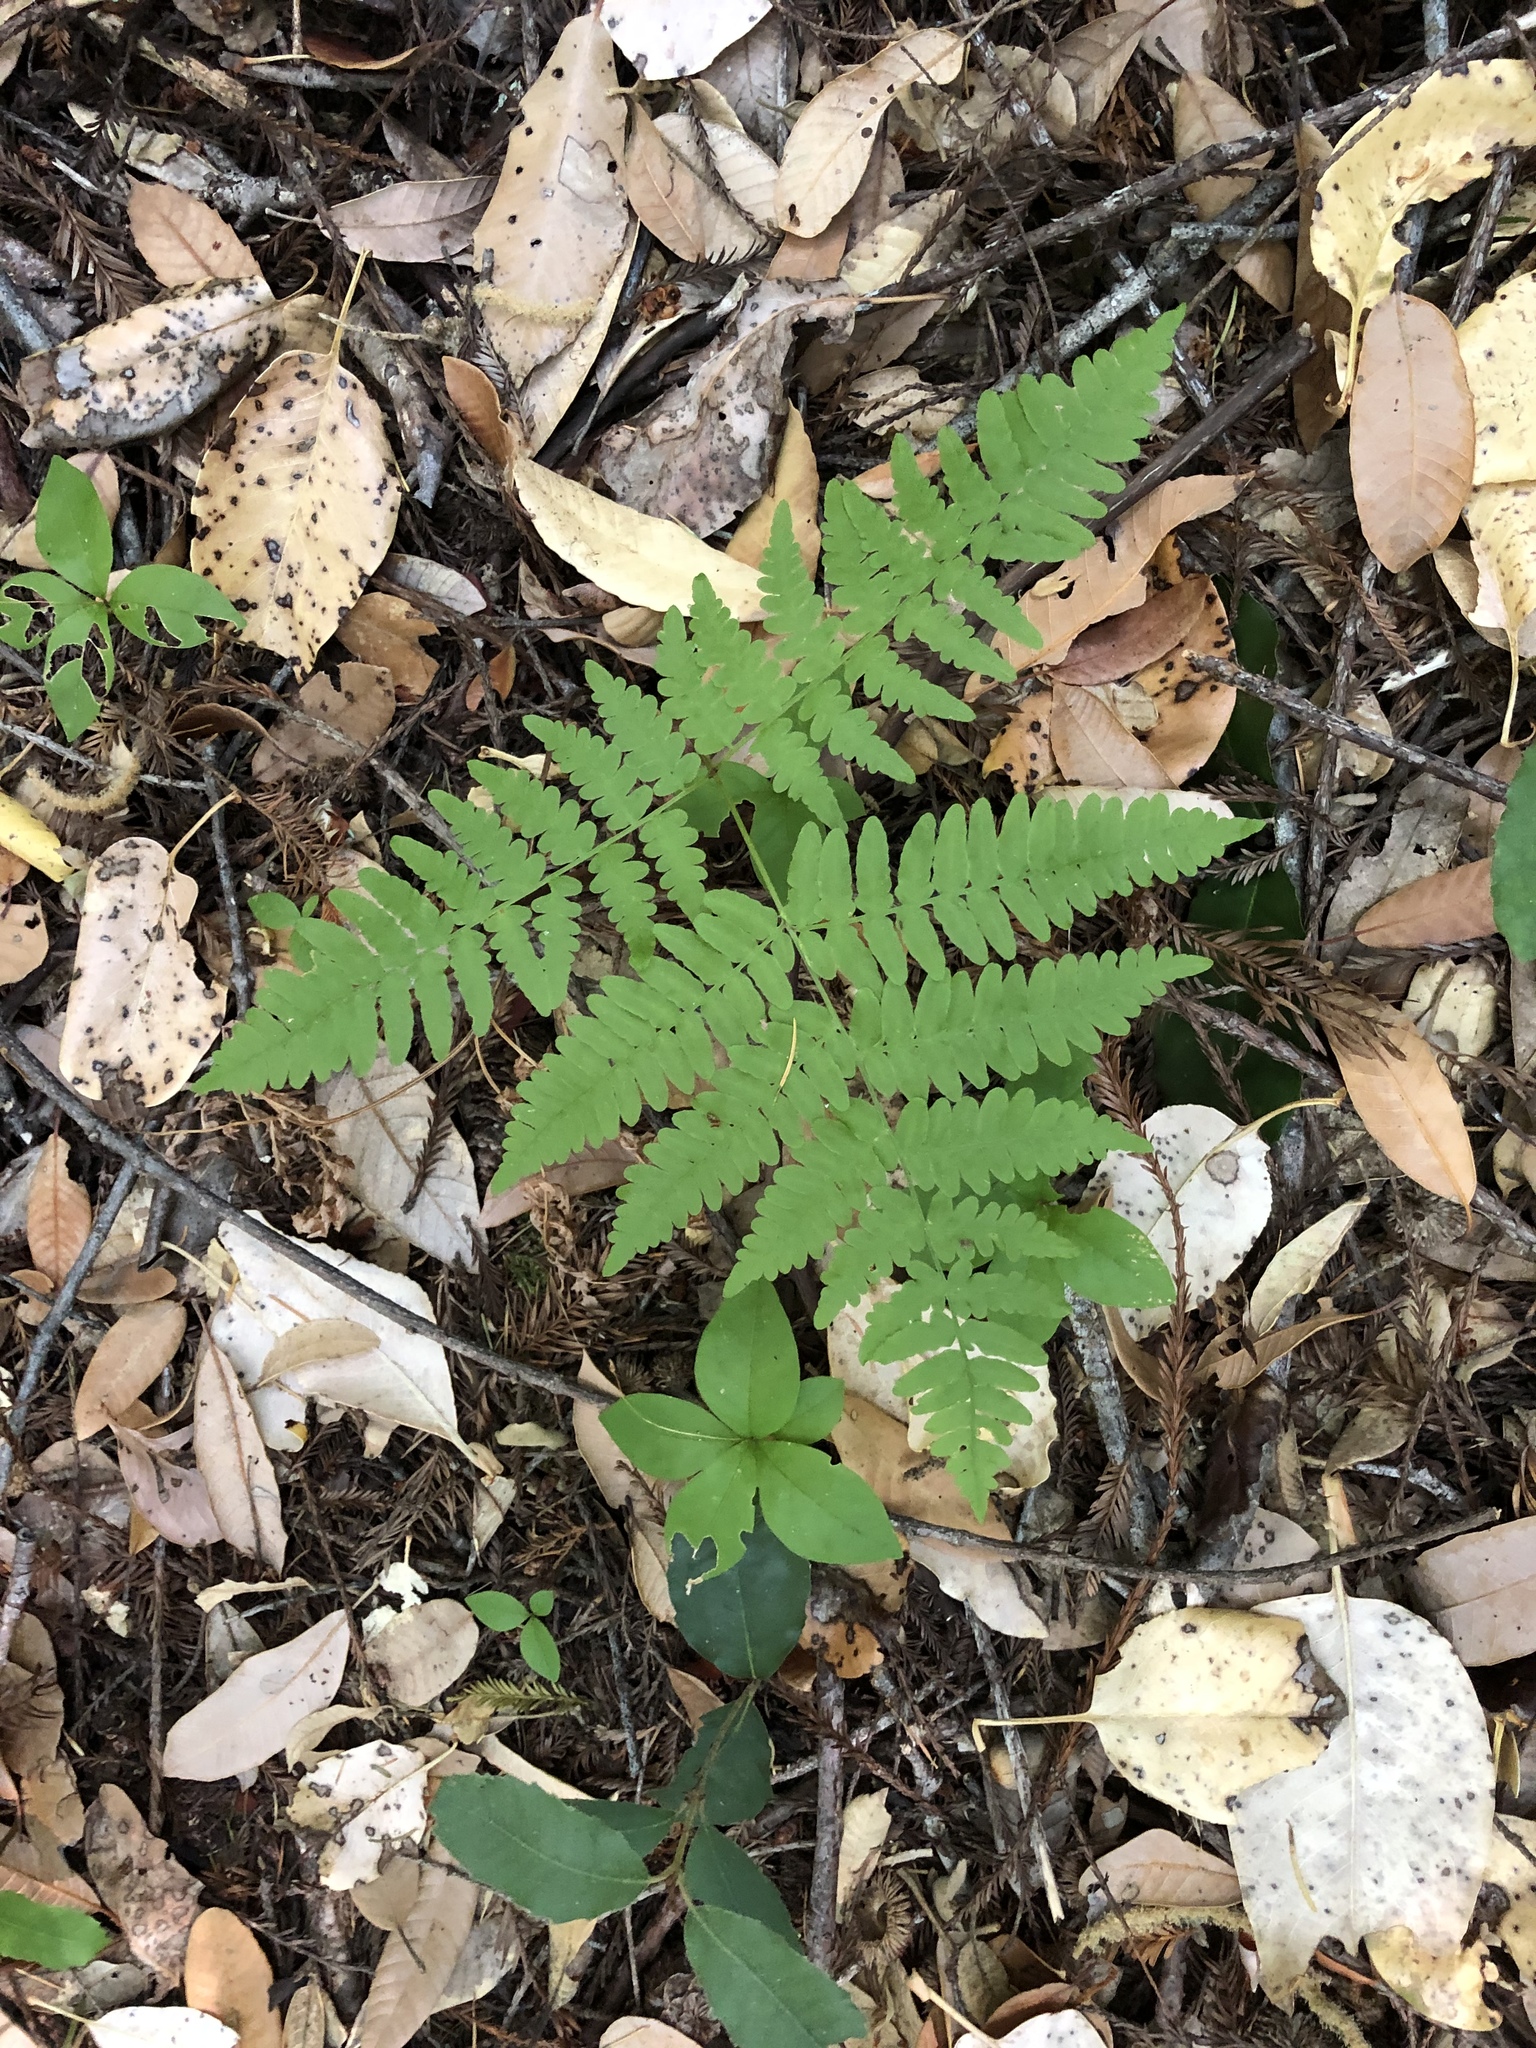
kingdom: Plantae
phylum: Tracheophyta
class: Polypodiopsida
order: Polypodiales
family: Dennstaedtiaceae
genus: Pteridium
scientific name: Pteridium aquilinum
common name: Bracken
